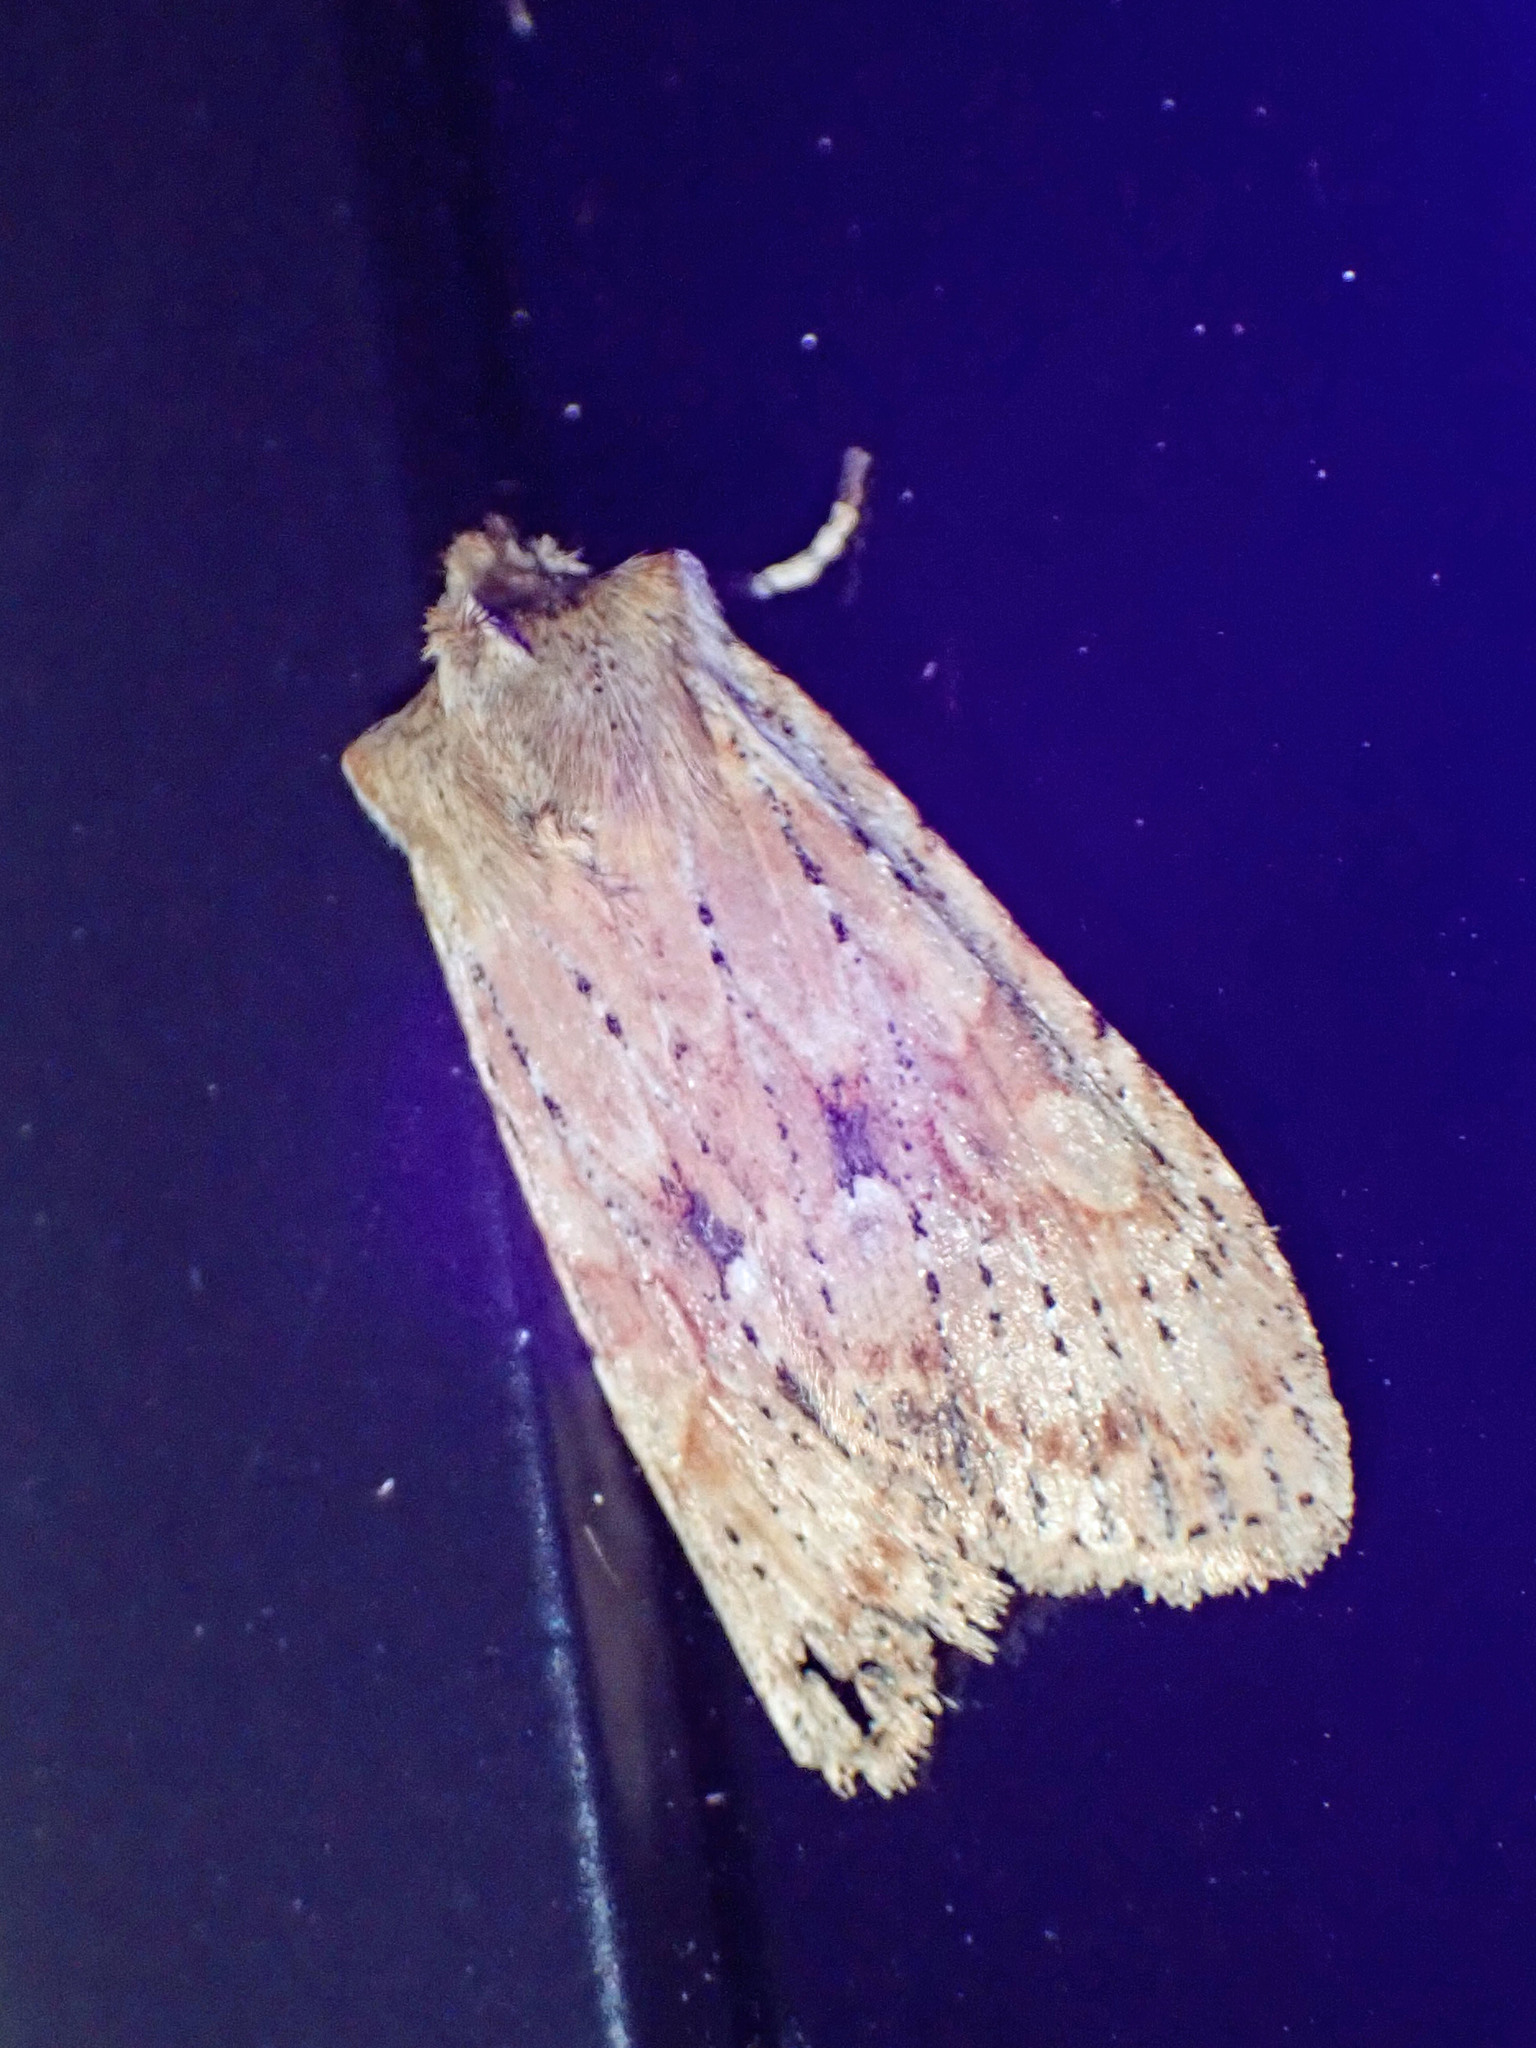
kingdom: Animalia
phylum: Arthropoda
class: Insecta
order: Lepidoptera
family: Noctuidae
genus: Lithophane
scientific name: Lithophane innominata
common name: Nameless pinion moth
